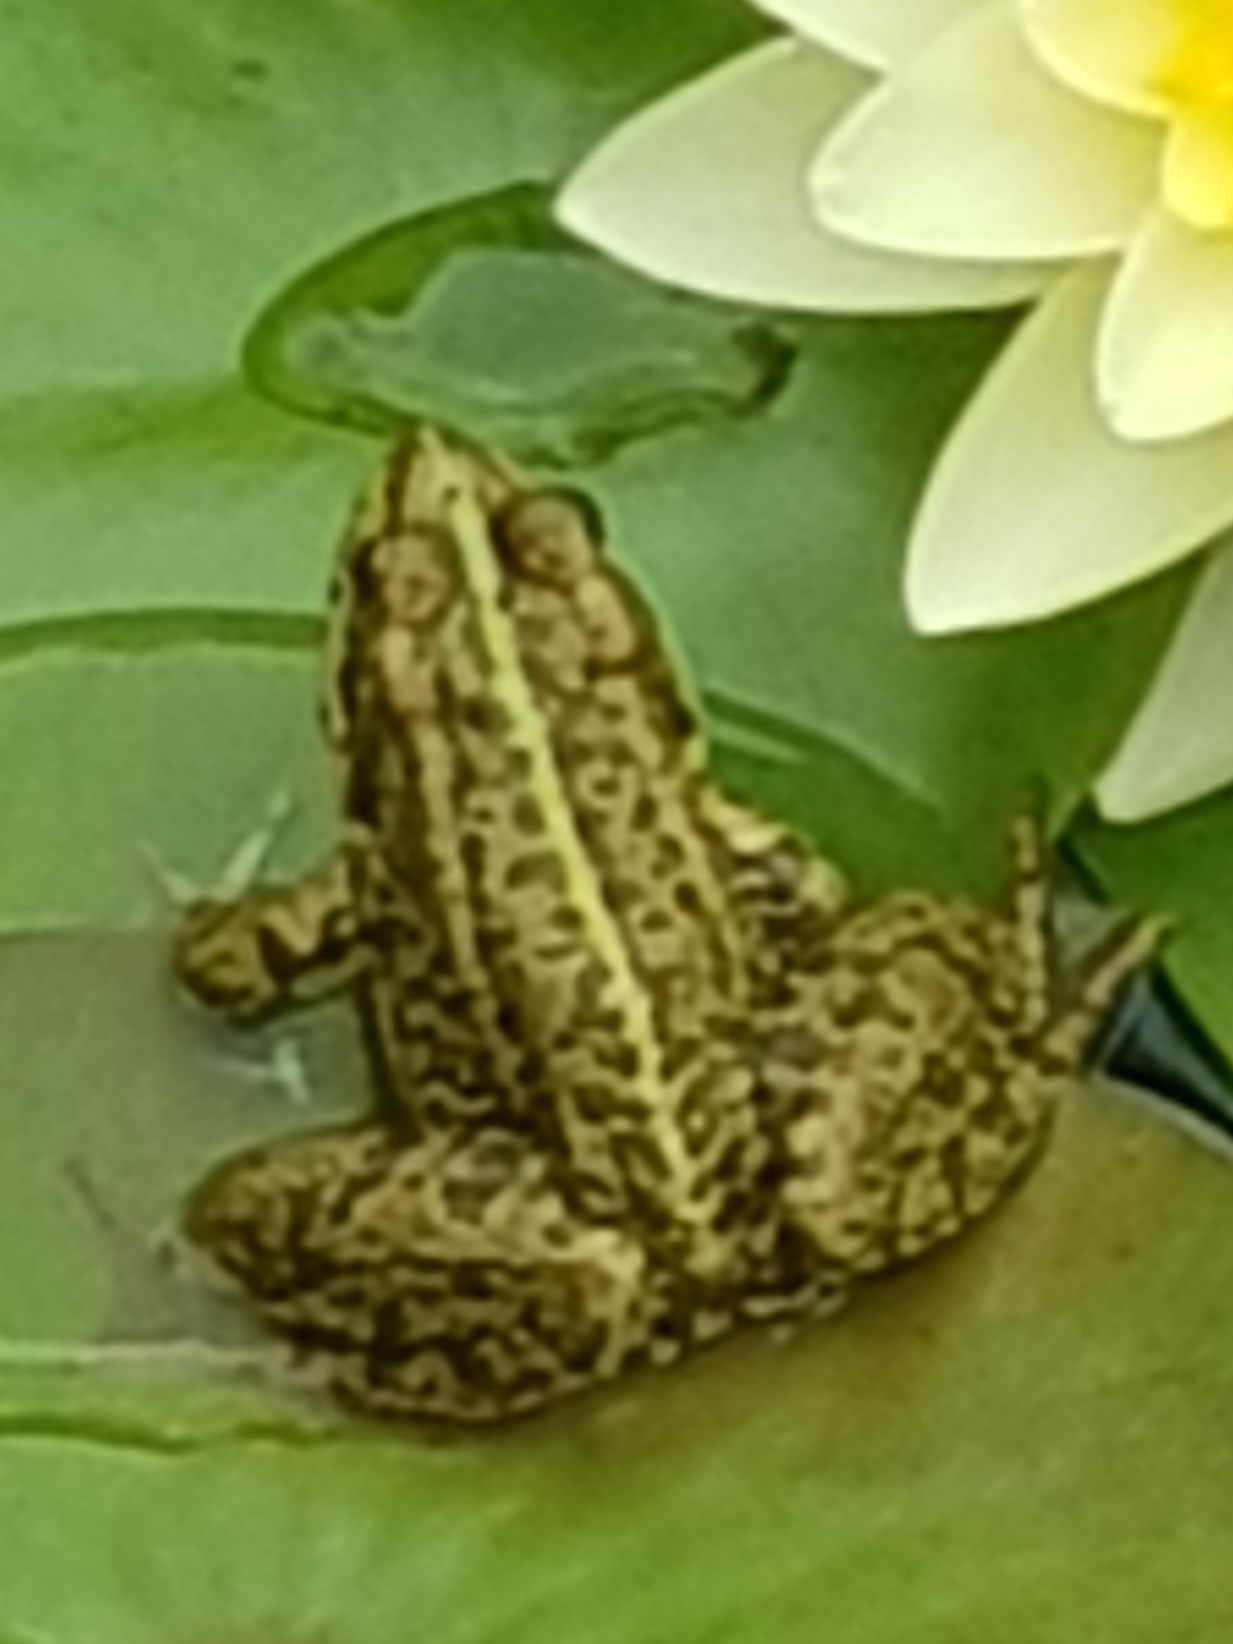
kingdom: Animalia
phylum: Chordata
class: Amphibia
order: Anura
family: Ranidae
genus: Pelophylax
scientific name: Pelophylax ridibundus
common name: Marsh frog
